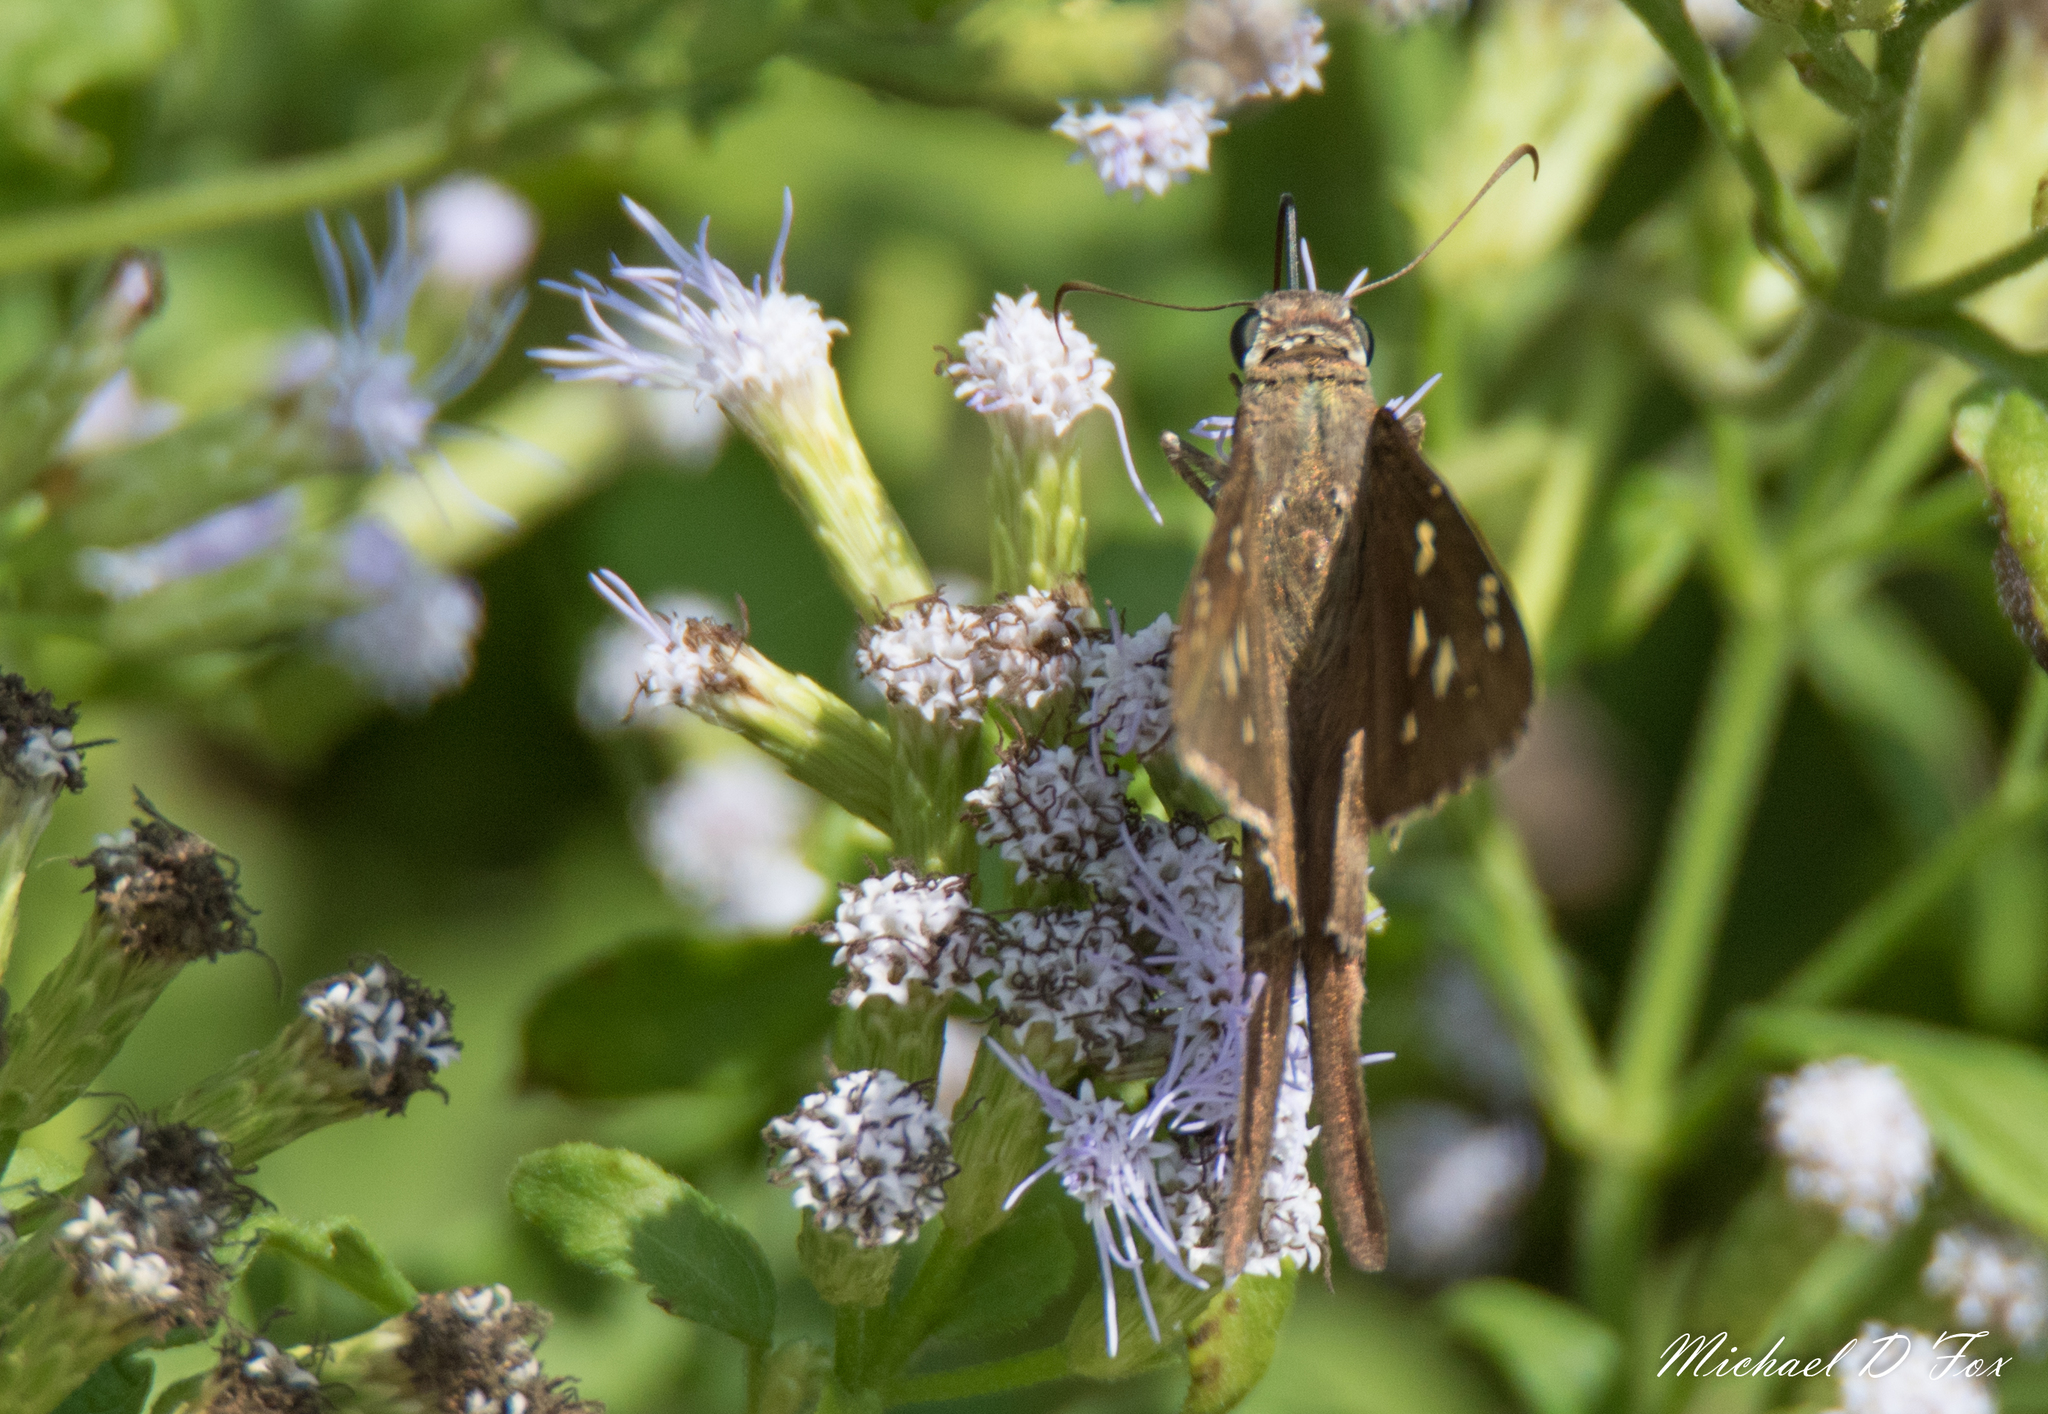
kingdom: Animalia
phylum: Arthropoda
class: Insecta
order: Lepidoptera
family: Hesperiidae
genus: Thorybes
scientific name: Thorybes
